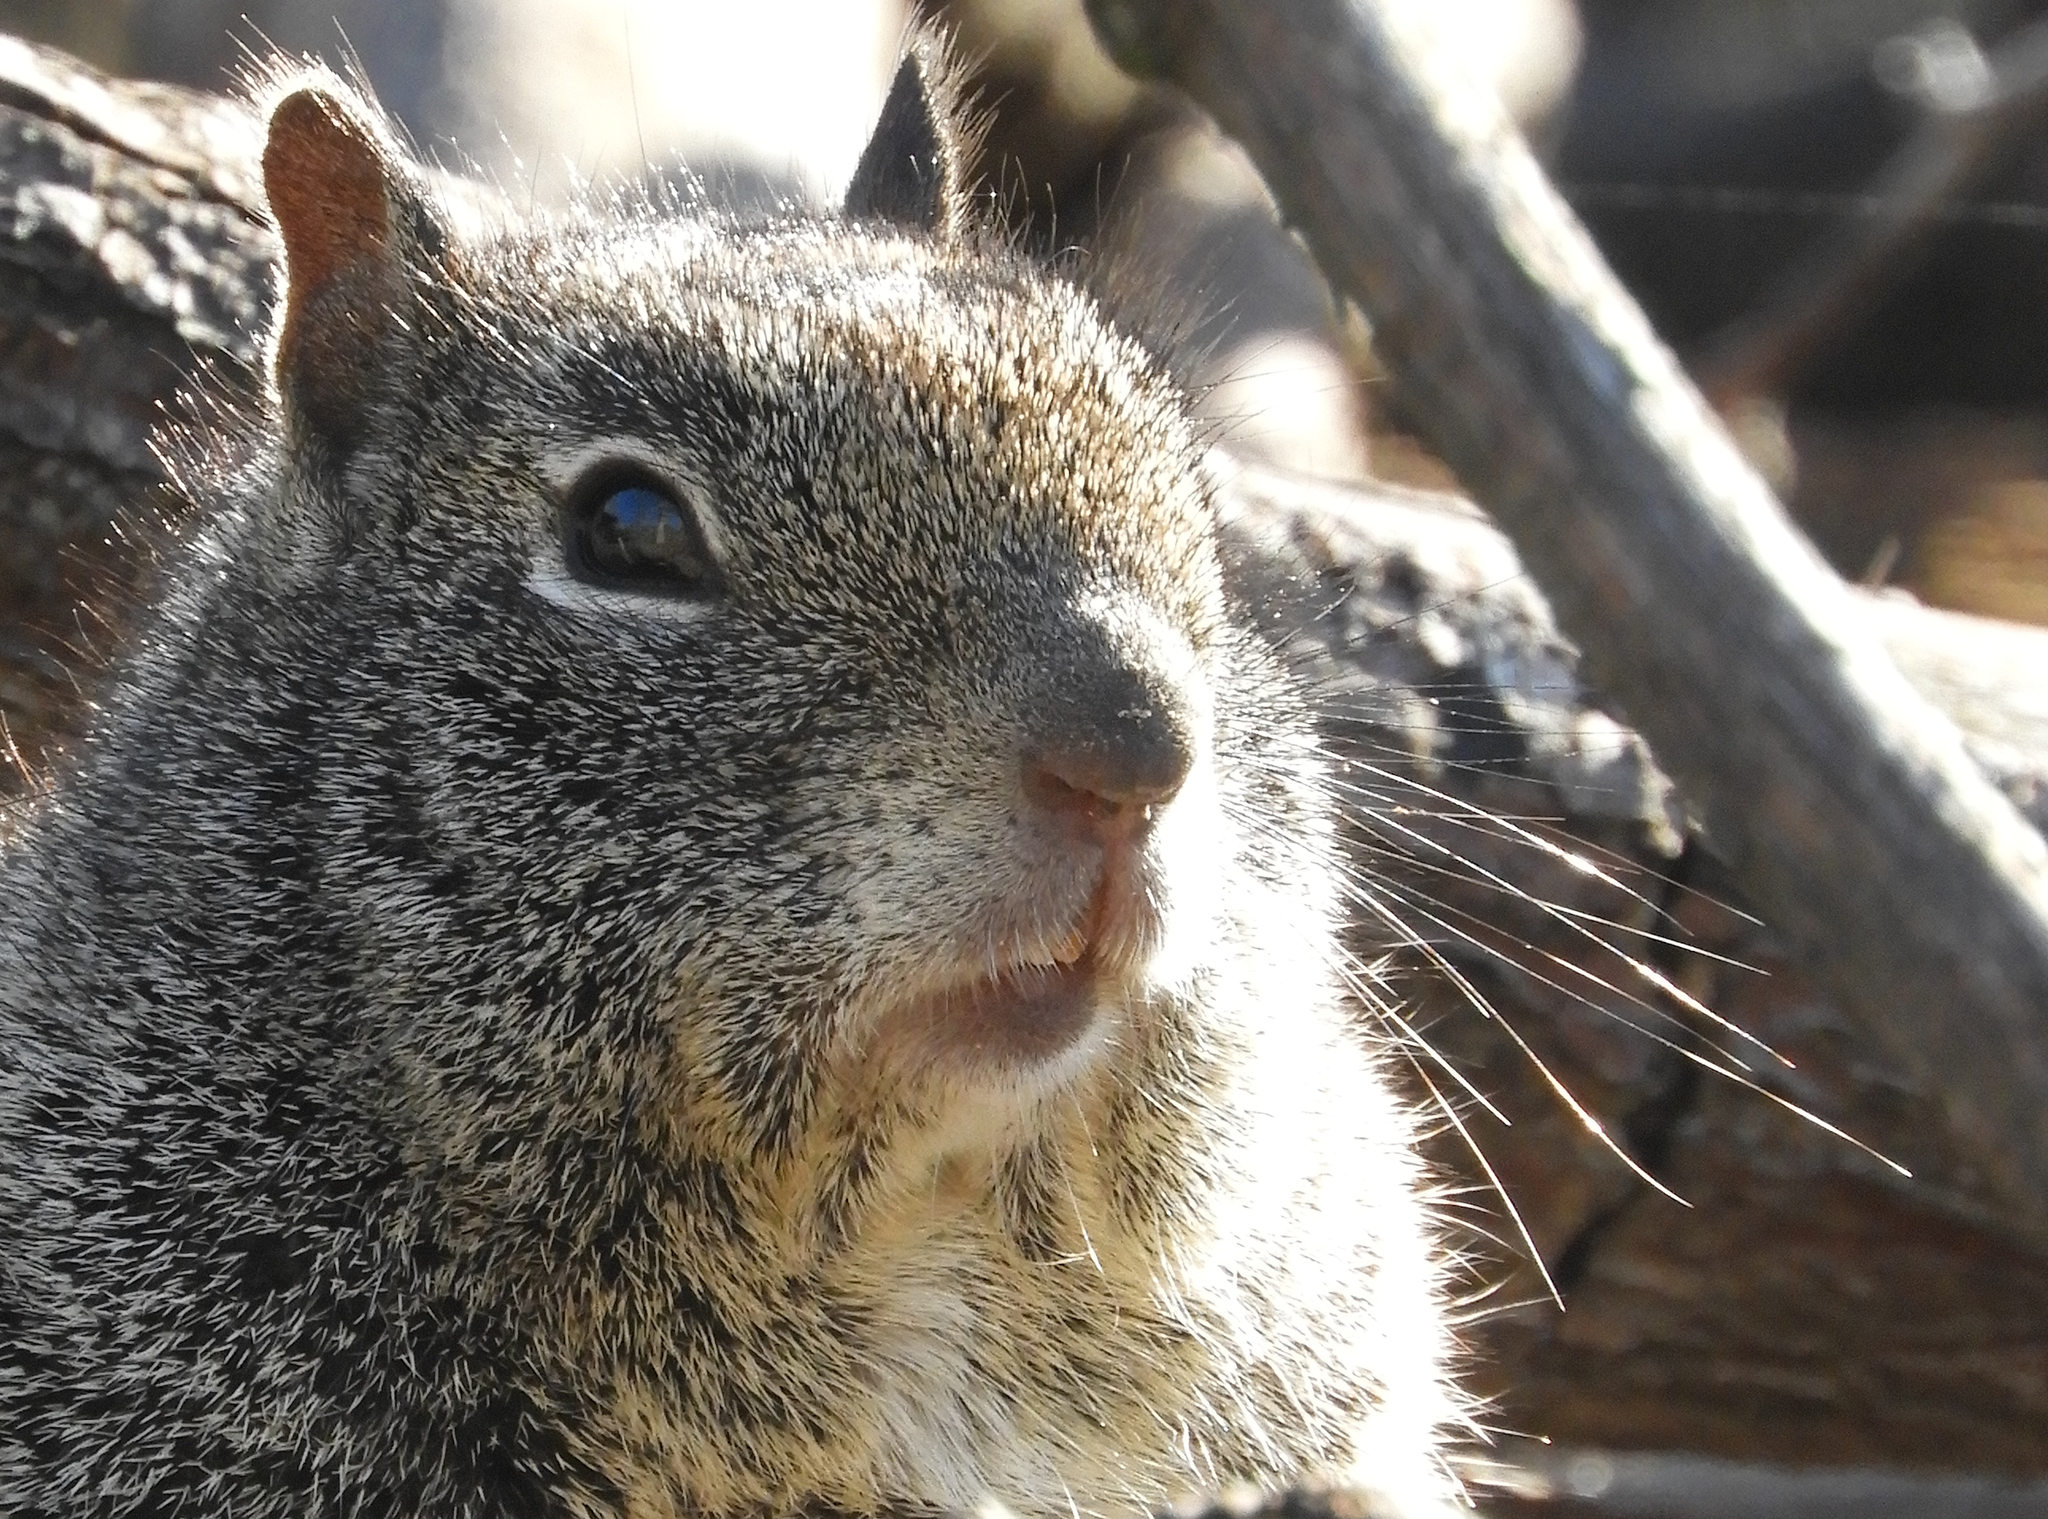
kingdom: Animalia
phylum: Chordata
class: Mammalia
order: Rodentia
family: Sciuridae
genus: Otospermophilus
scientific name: Otospermophilus beecheyi
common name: California ground squirrel
